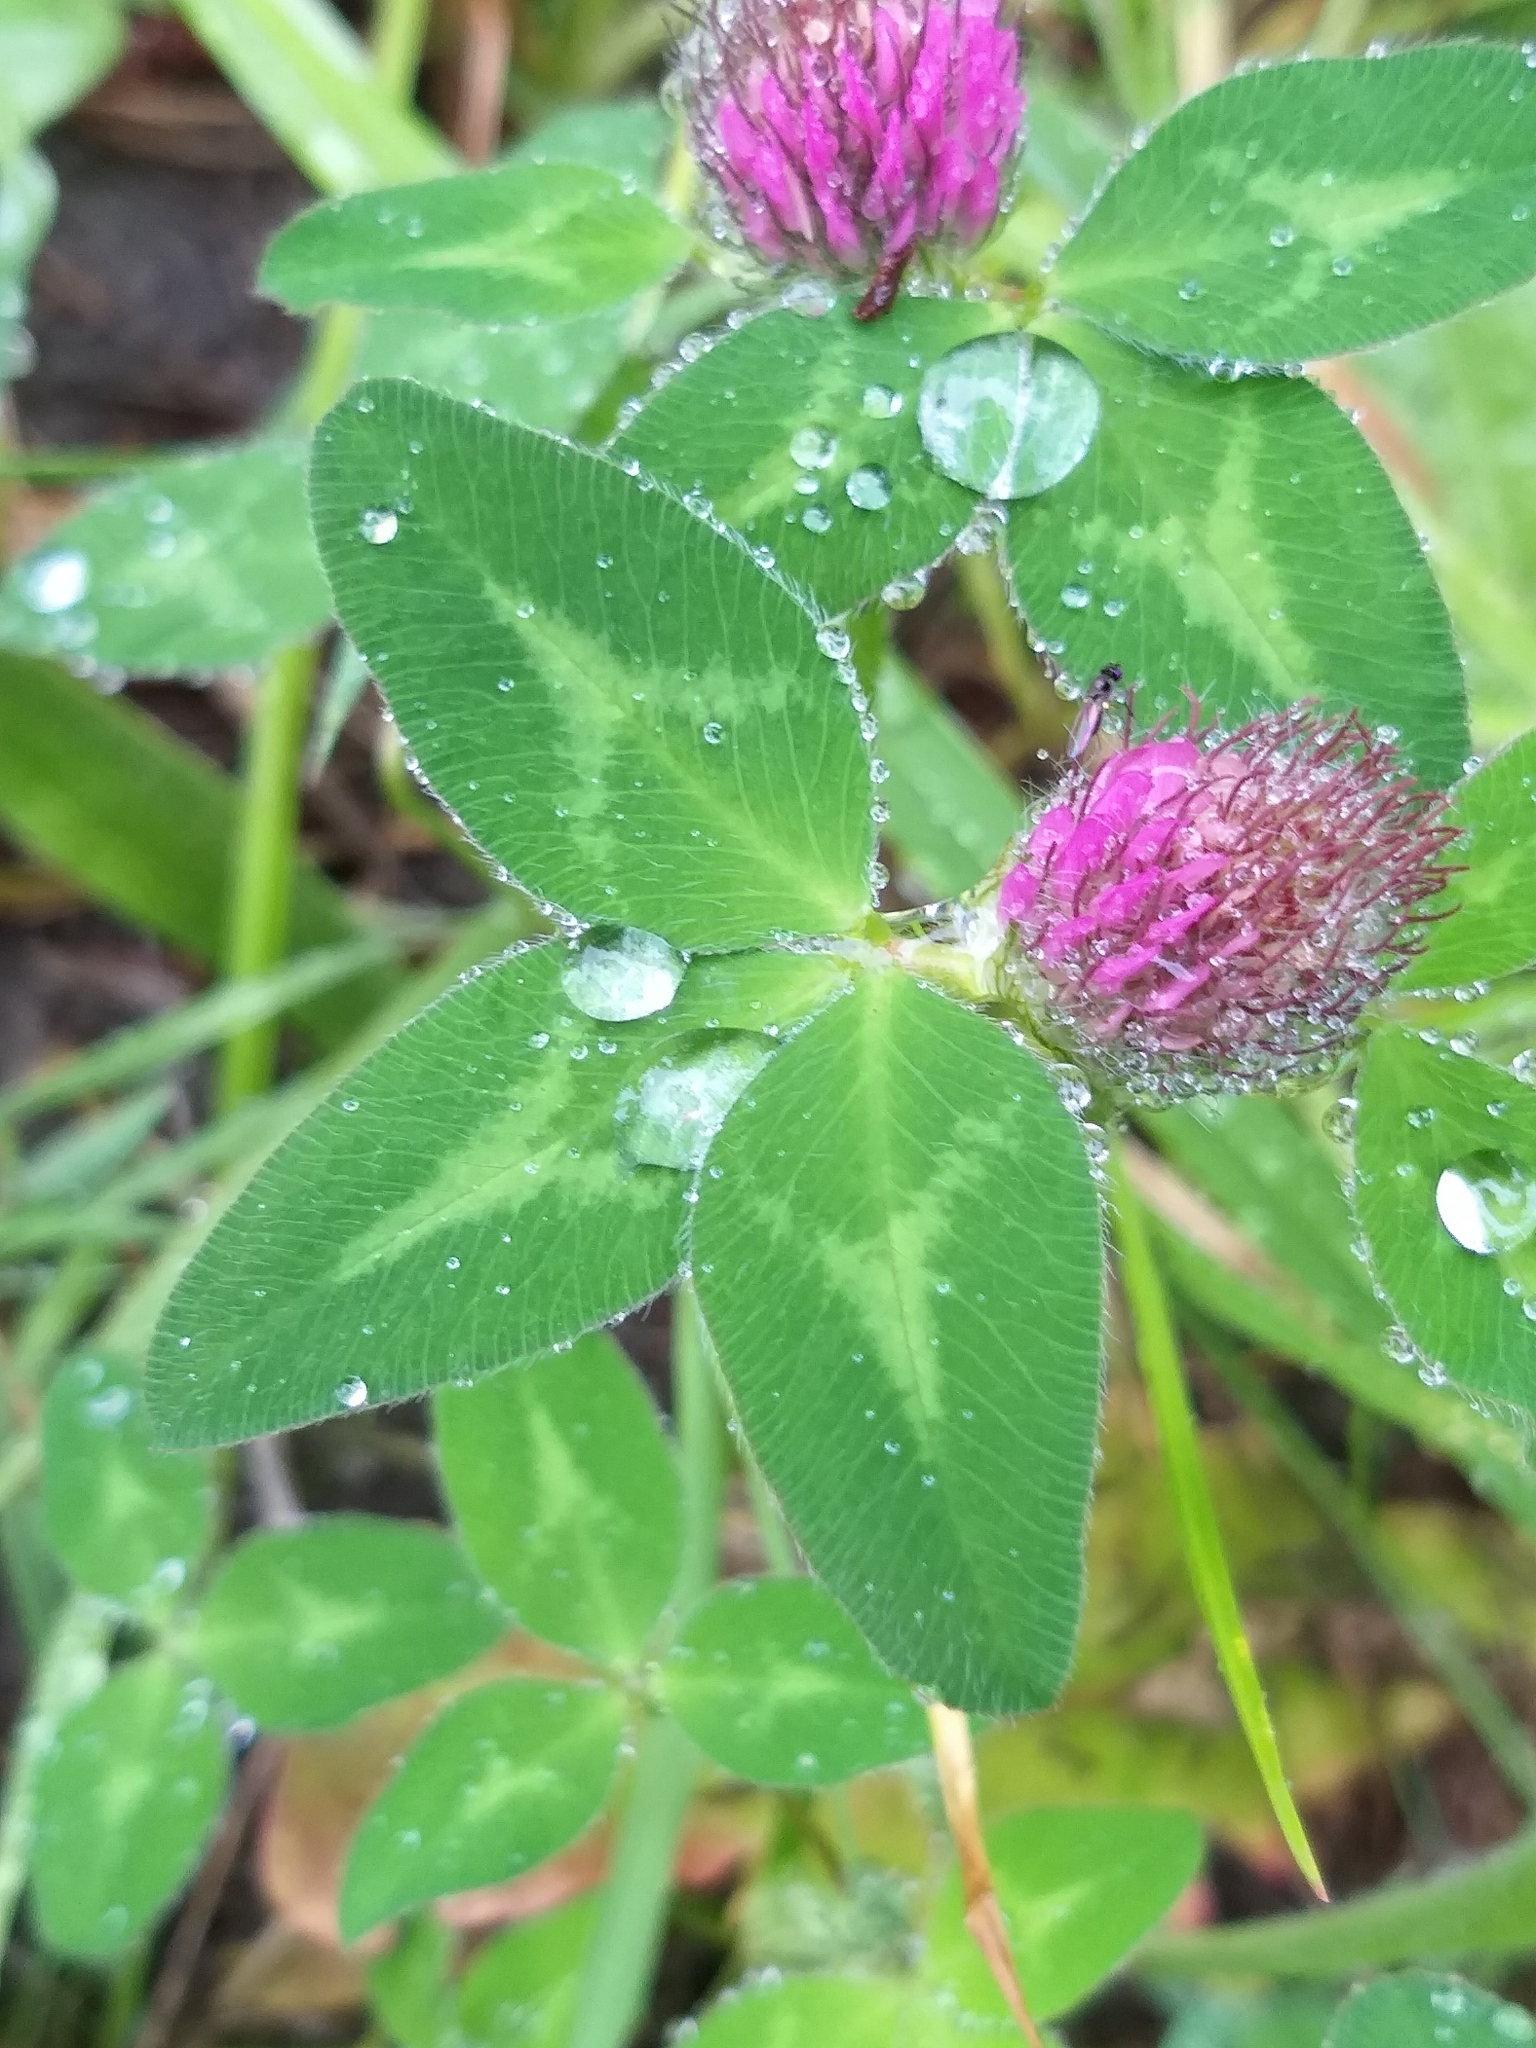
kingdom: Plantae
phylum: Tracheophyta
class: Magnoliopsida
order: Fabales
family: Fabaceae
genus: Trifolium
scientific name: Trifolium pratense
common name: Red clover
